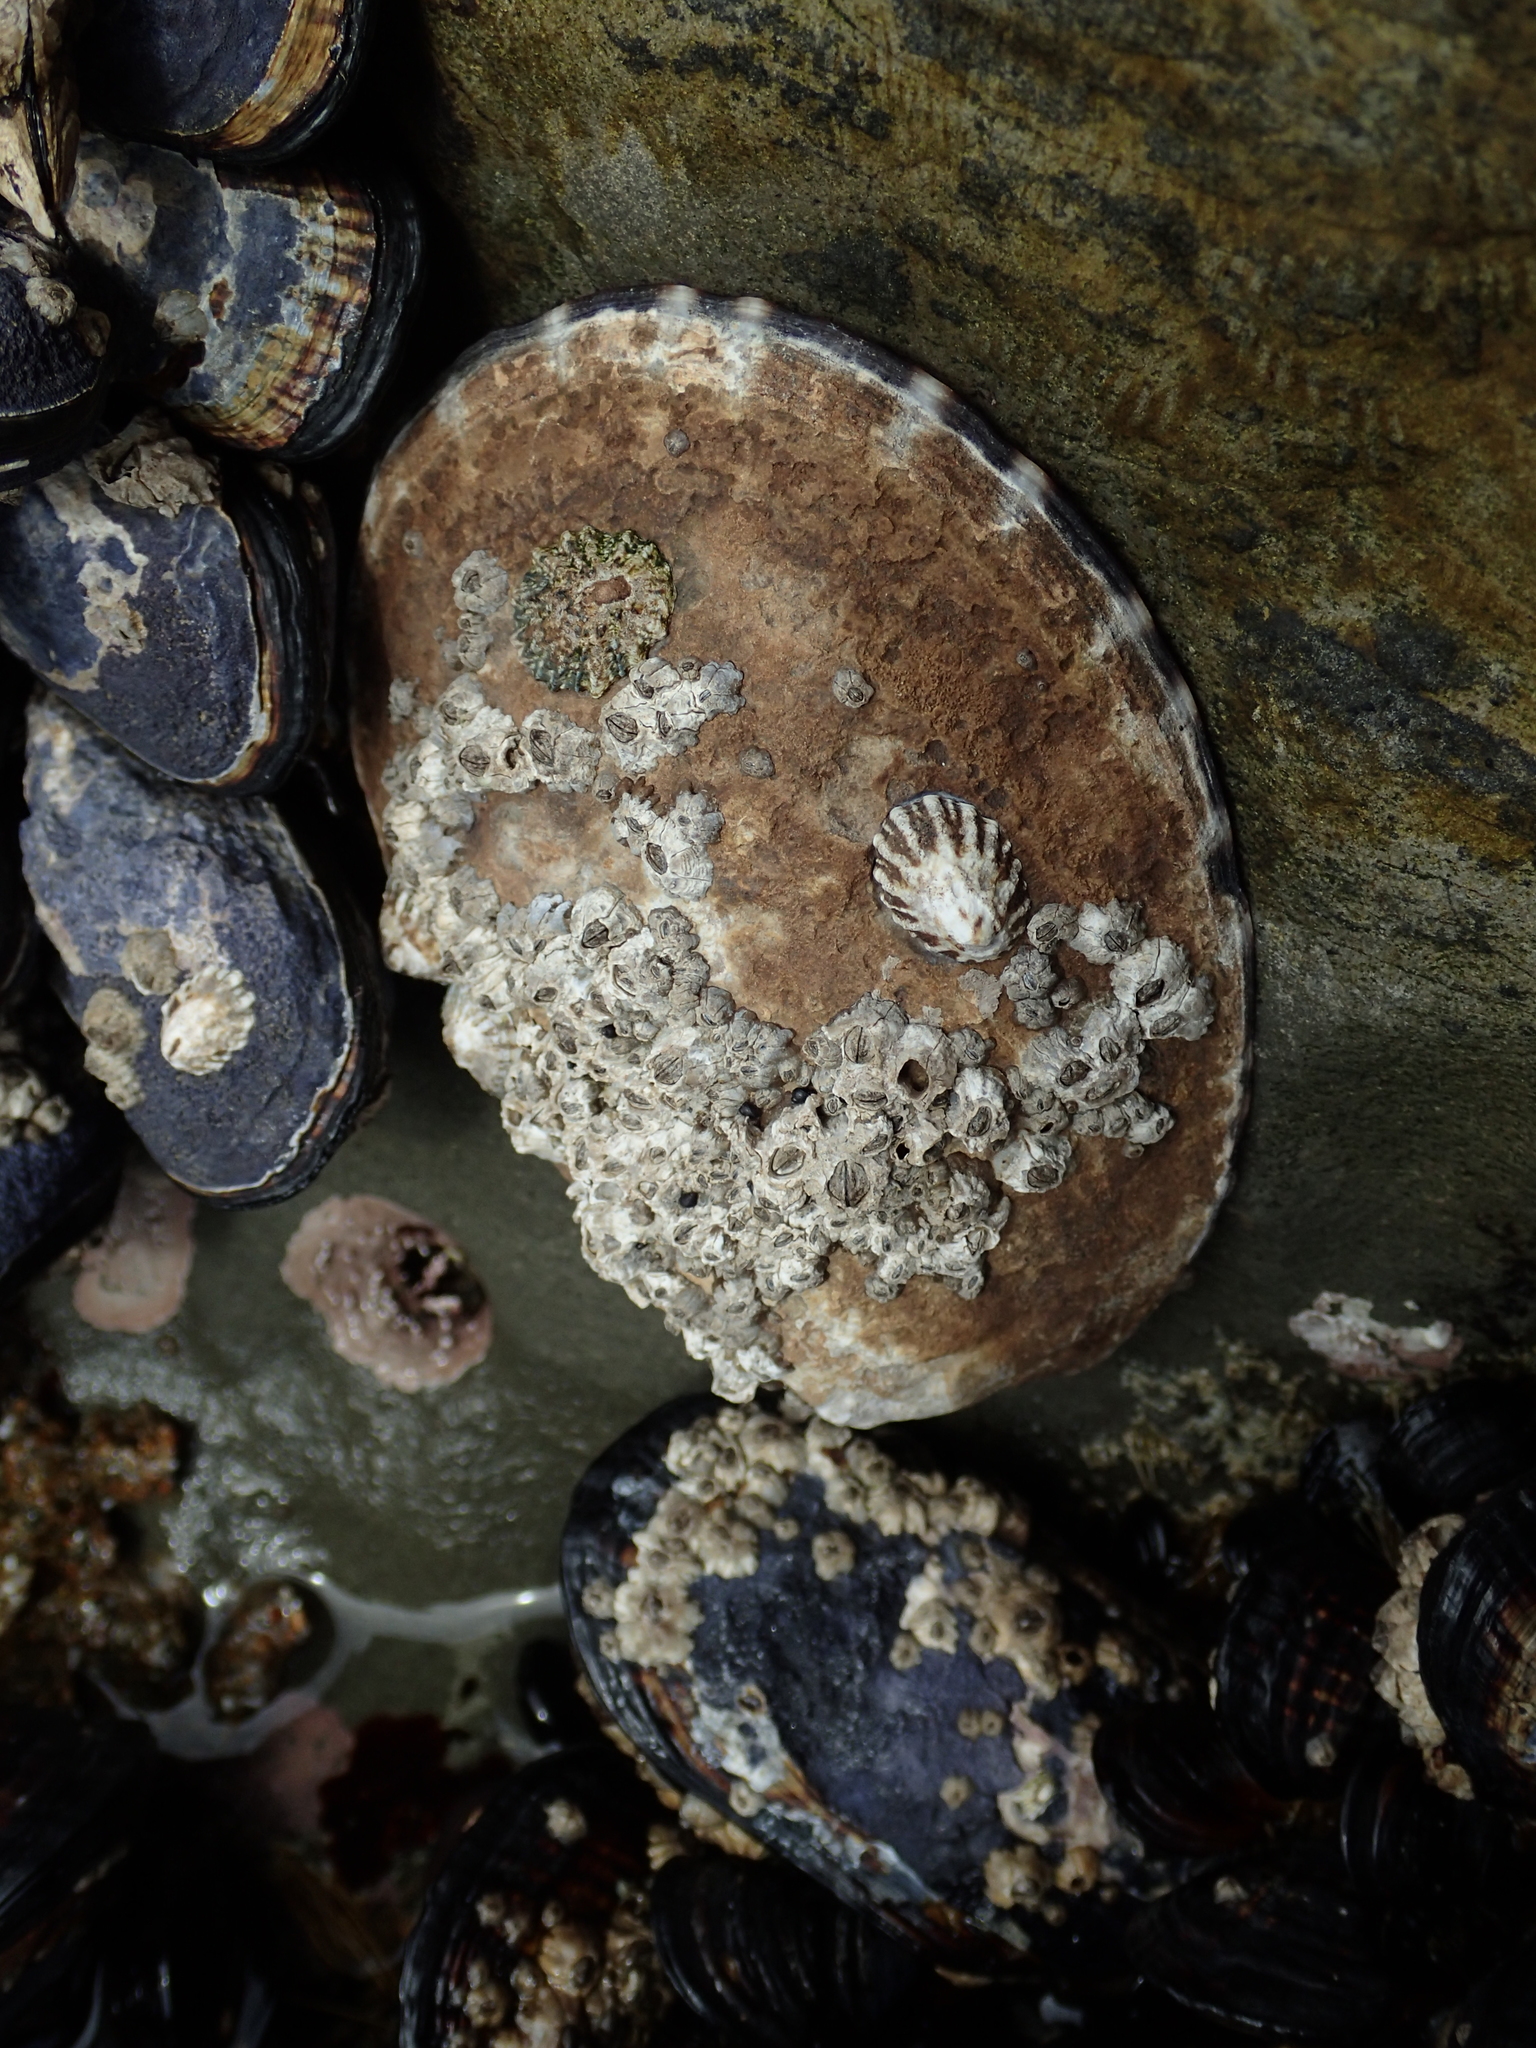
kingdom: Animalia
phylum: Mollusca
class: Gastropoda
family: Lottiidae
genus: Lottia
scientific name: Lottia gigantea
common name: Owl limpet
